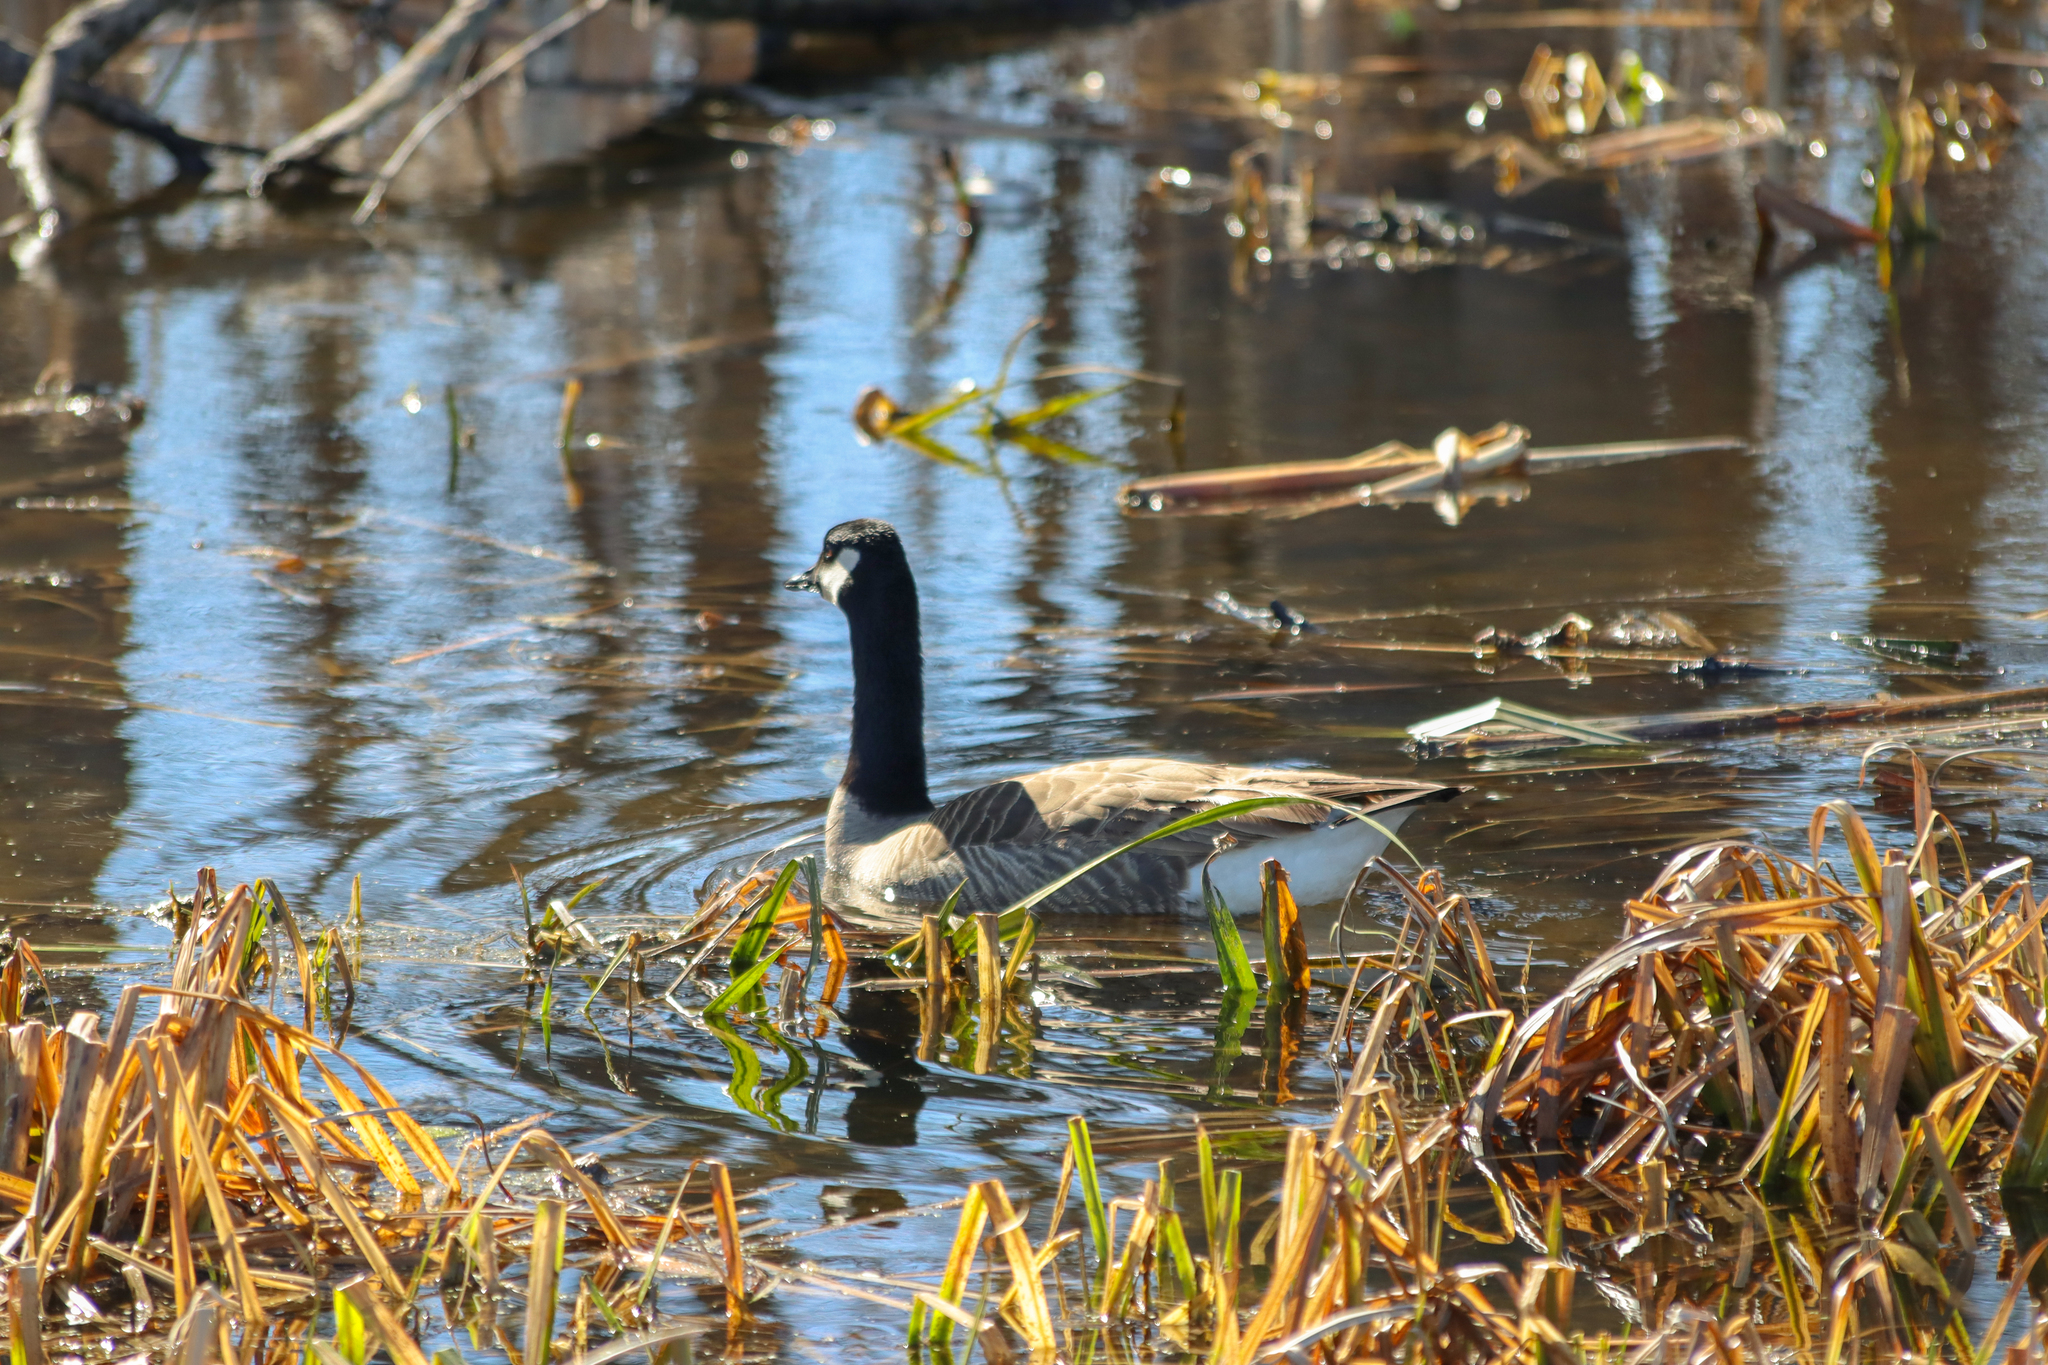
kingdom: Animalia
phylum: Chordata
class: Aves
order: Anseriformes
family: Anatidae
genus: Branta
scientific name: Branta canadensis
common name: Canada goose
